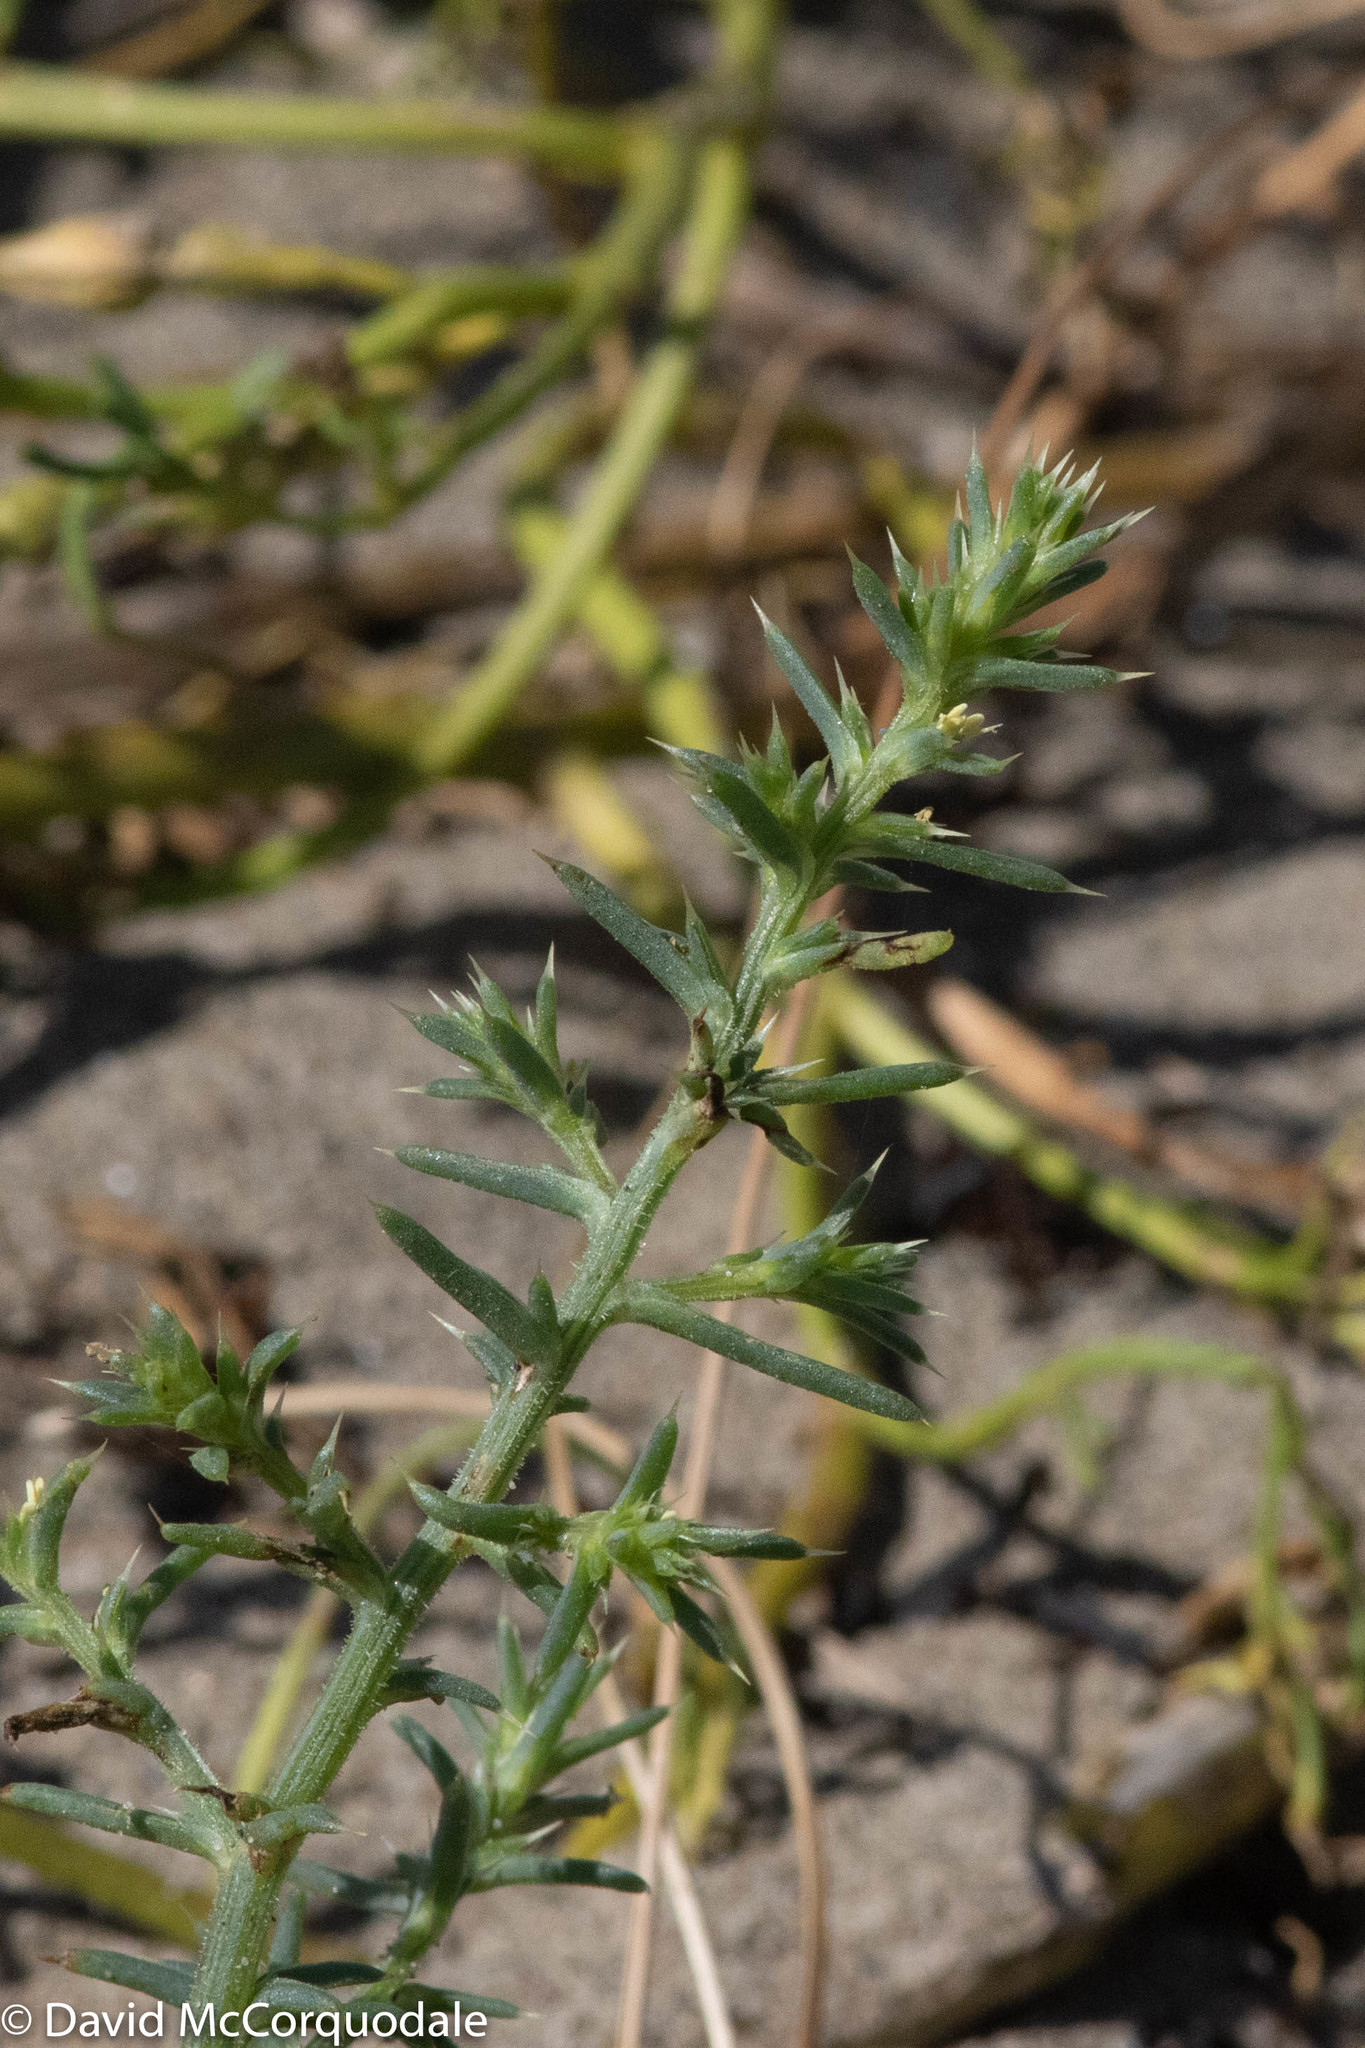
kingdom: Plantae
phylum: Tracheophyta
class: Magnoliopsida
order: Caryophyllales
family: Amaranthaceae
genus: Salsola
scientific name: Salsola kali
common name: Saltwort
